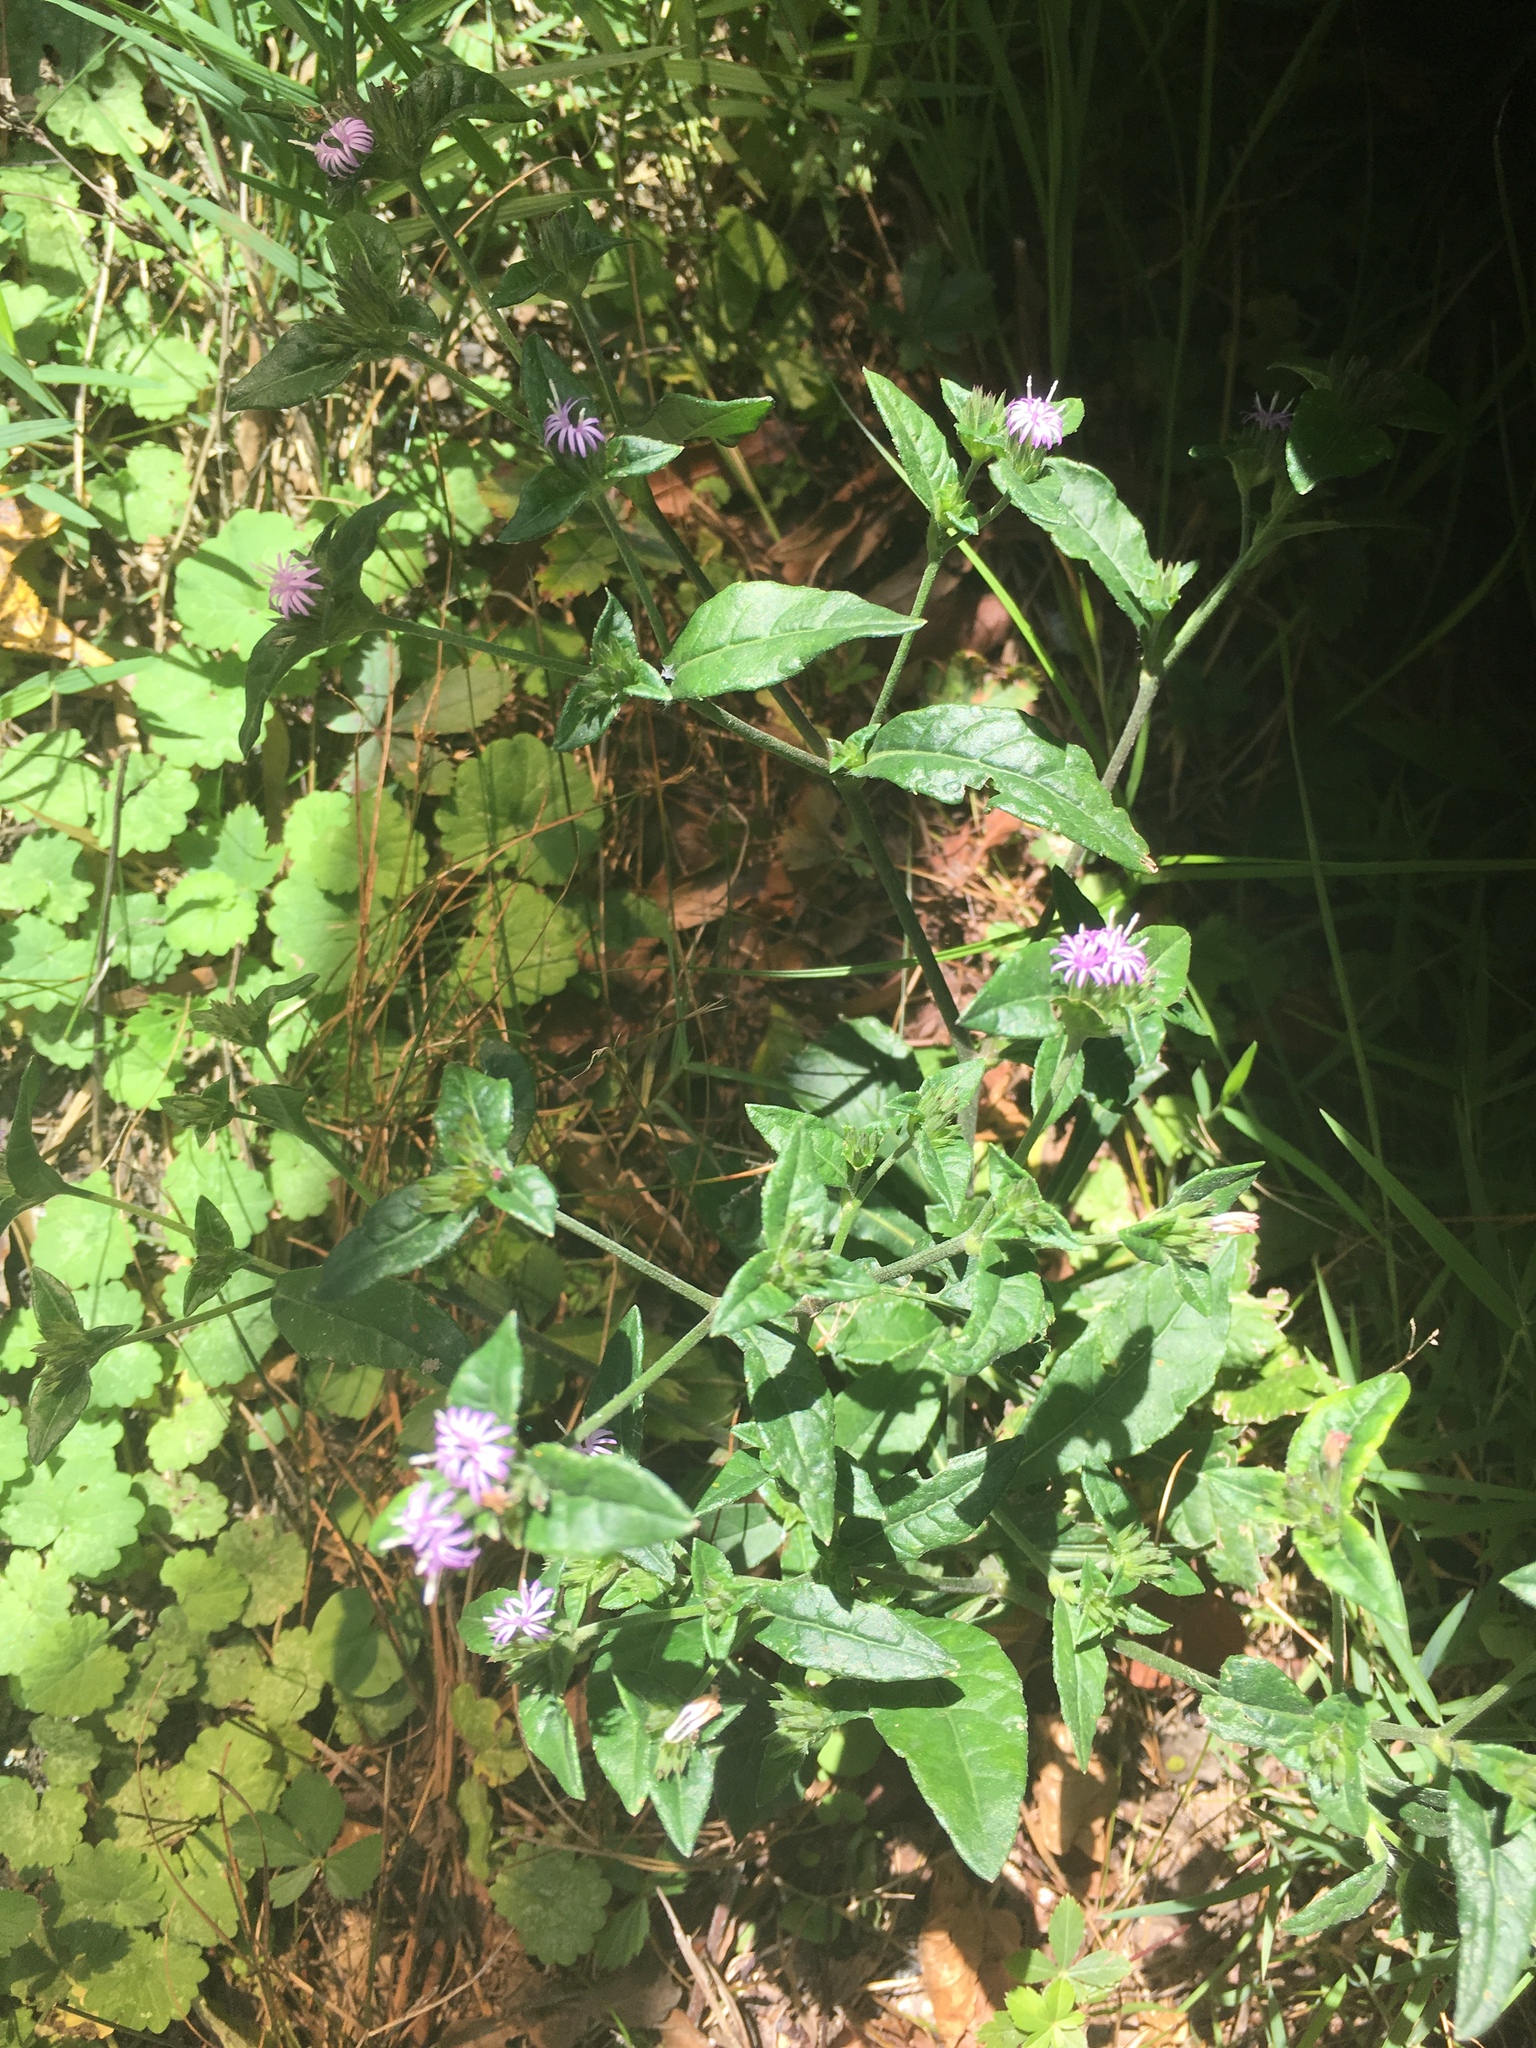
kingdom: Plantae
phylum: Tracheophyta
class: Magnoliopsida
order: Asterales
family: Asteraceae
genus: Elephantopus
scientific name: Elephantopus carolinianus
